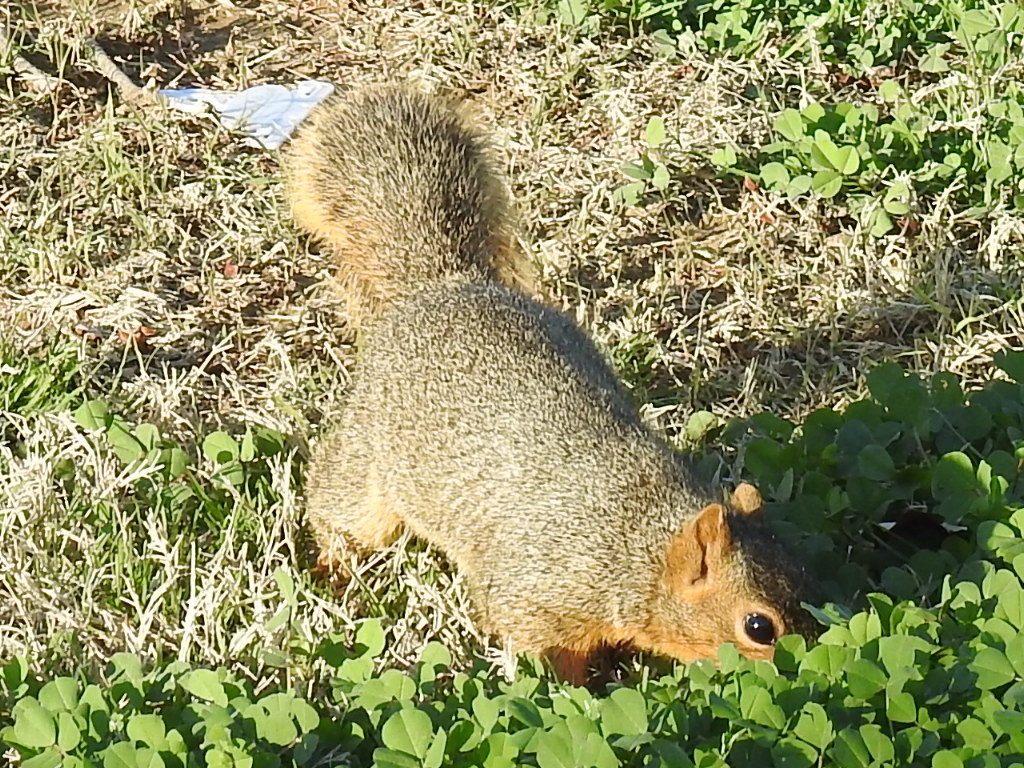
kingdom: Animalia
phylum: Chordata
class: Mammalia
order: Rodentia
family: Sciuridae
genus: Sciurus
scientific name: Sciurus niger
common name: Fox squirrel
